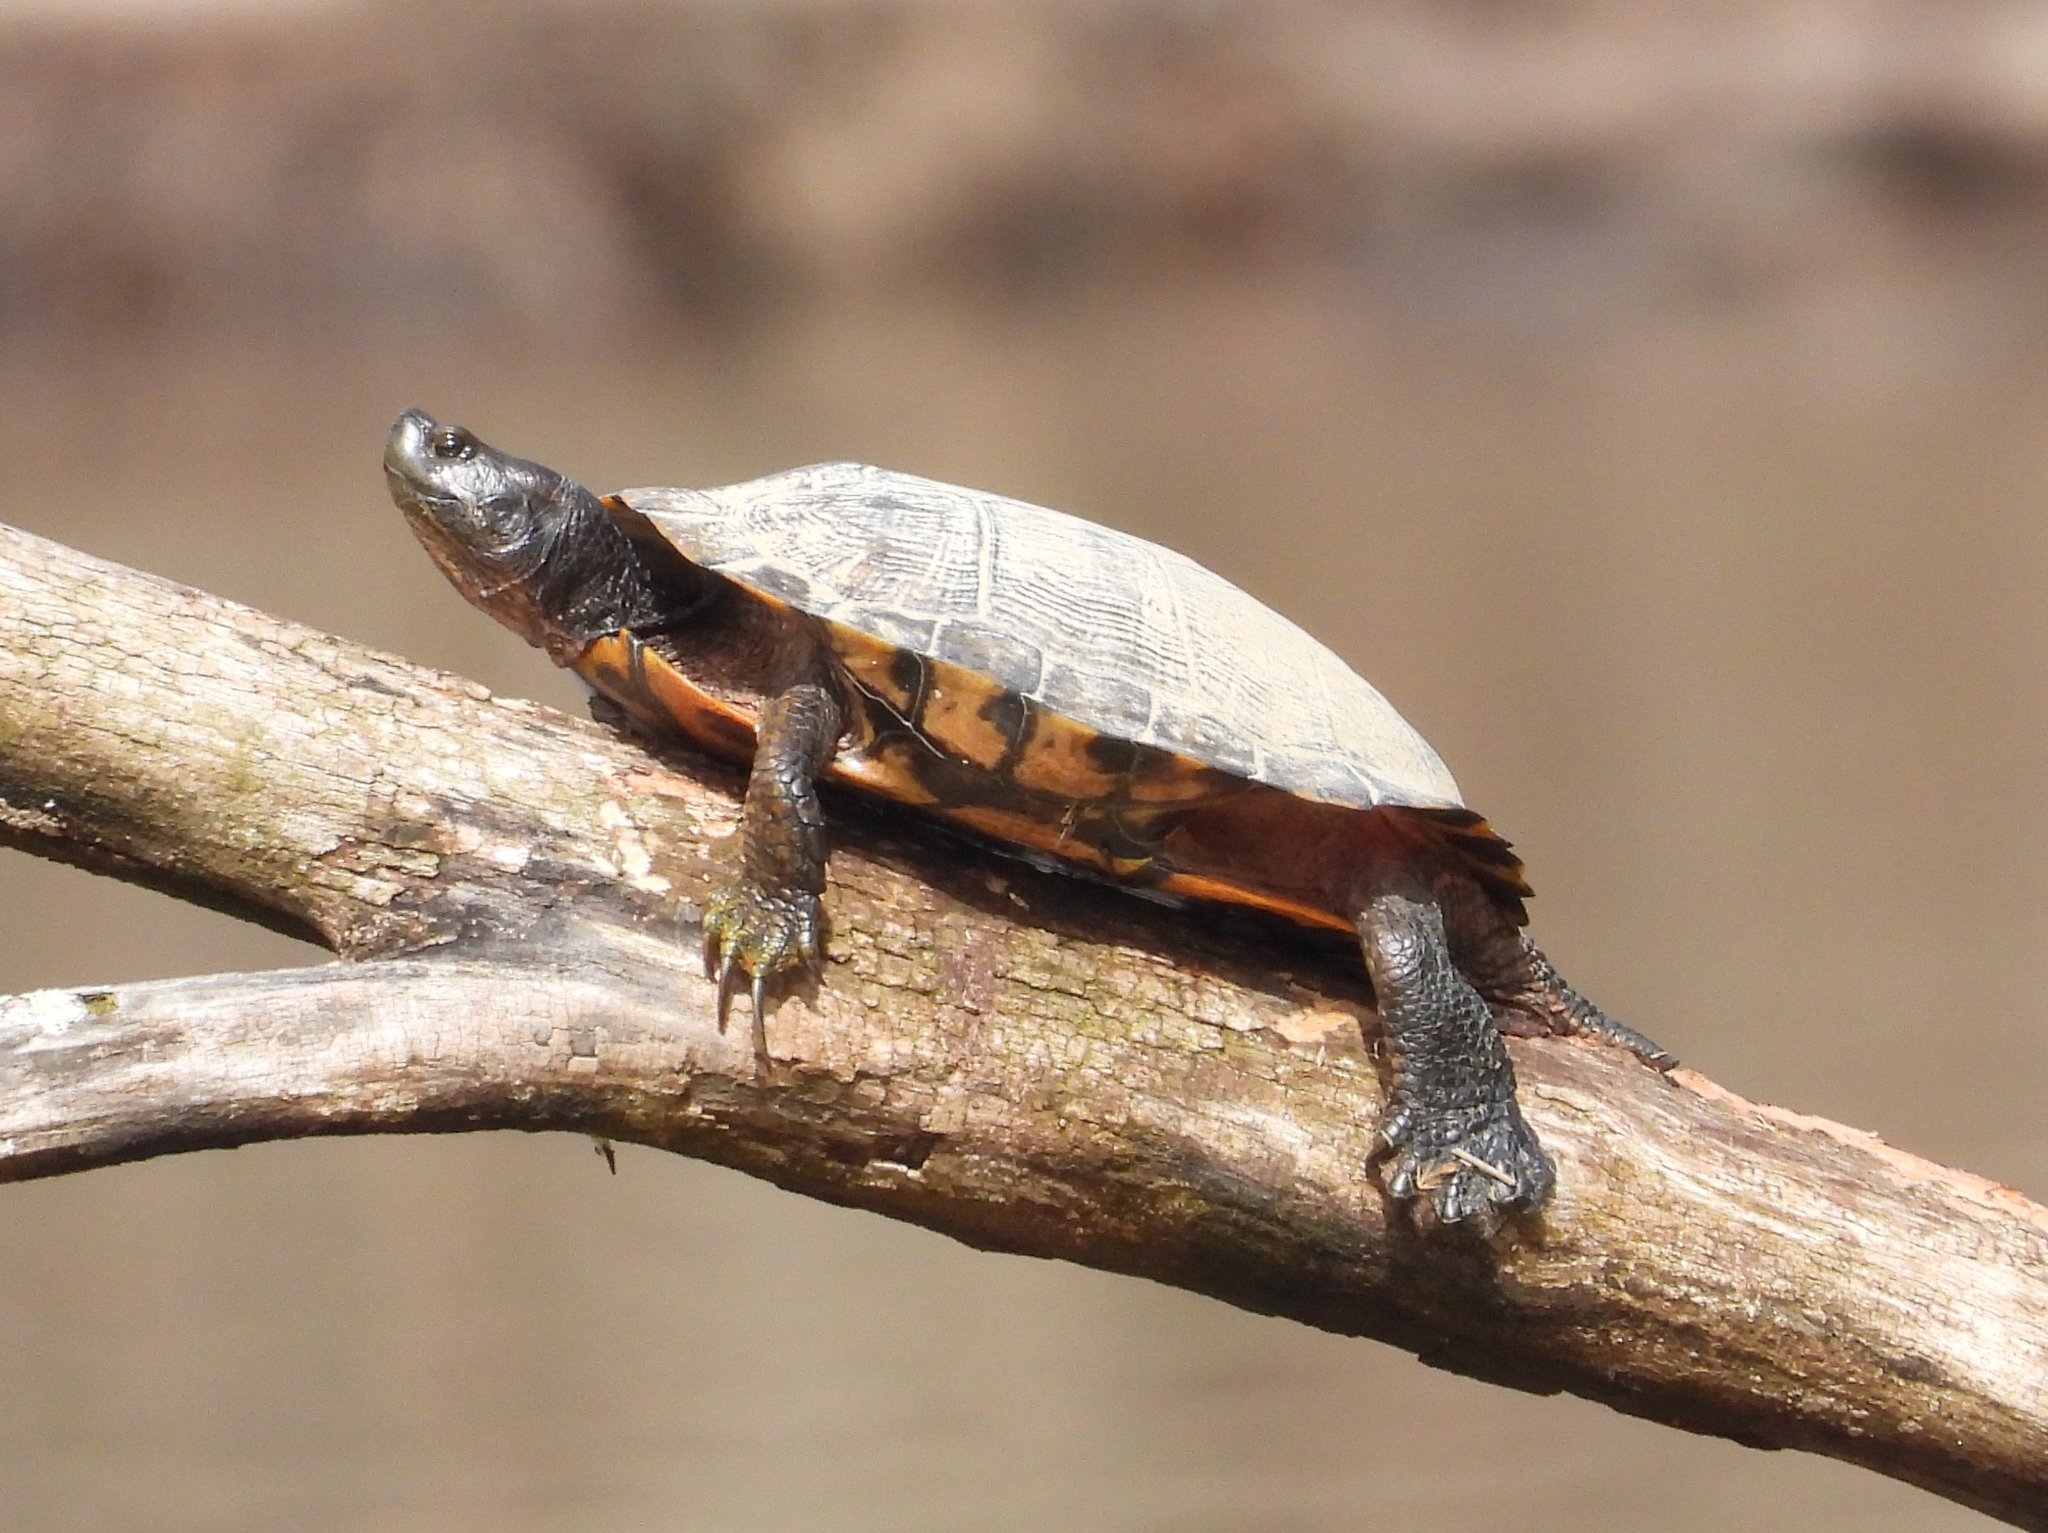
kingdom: Animalia
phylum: Chordata
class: Testudines
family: Emydidae
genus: Trachemys
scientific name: Trachemys scripta
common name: Slider
